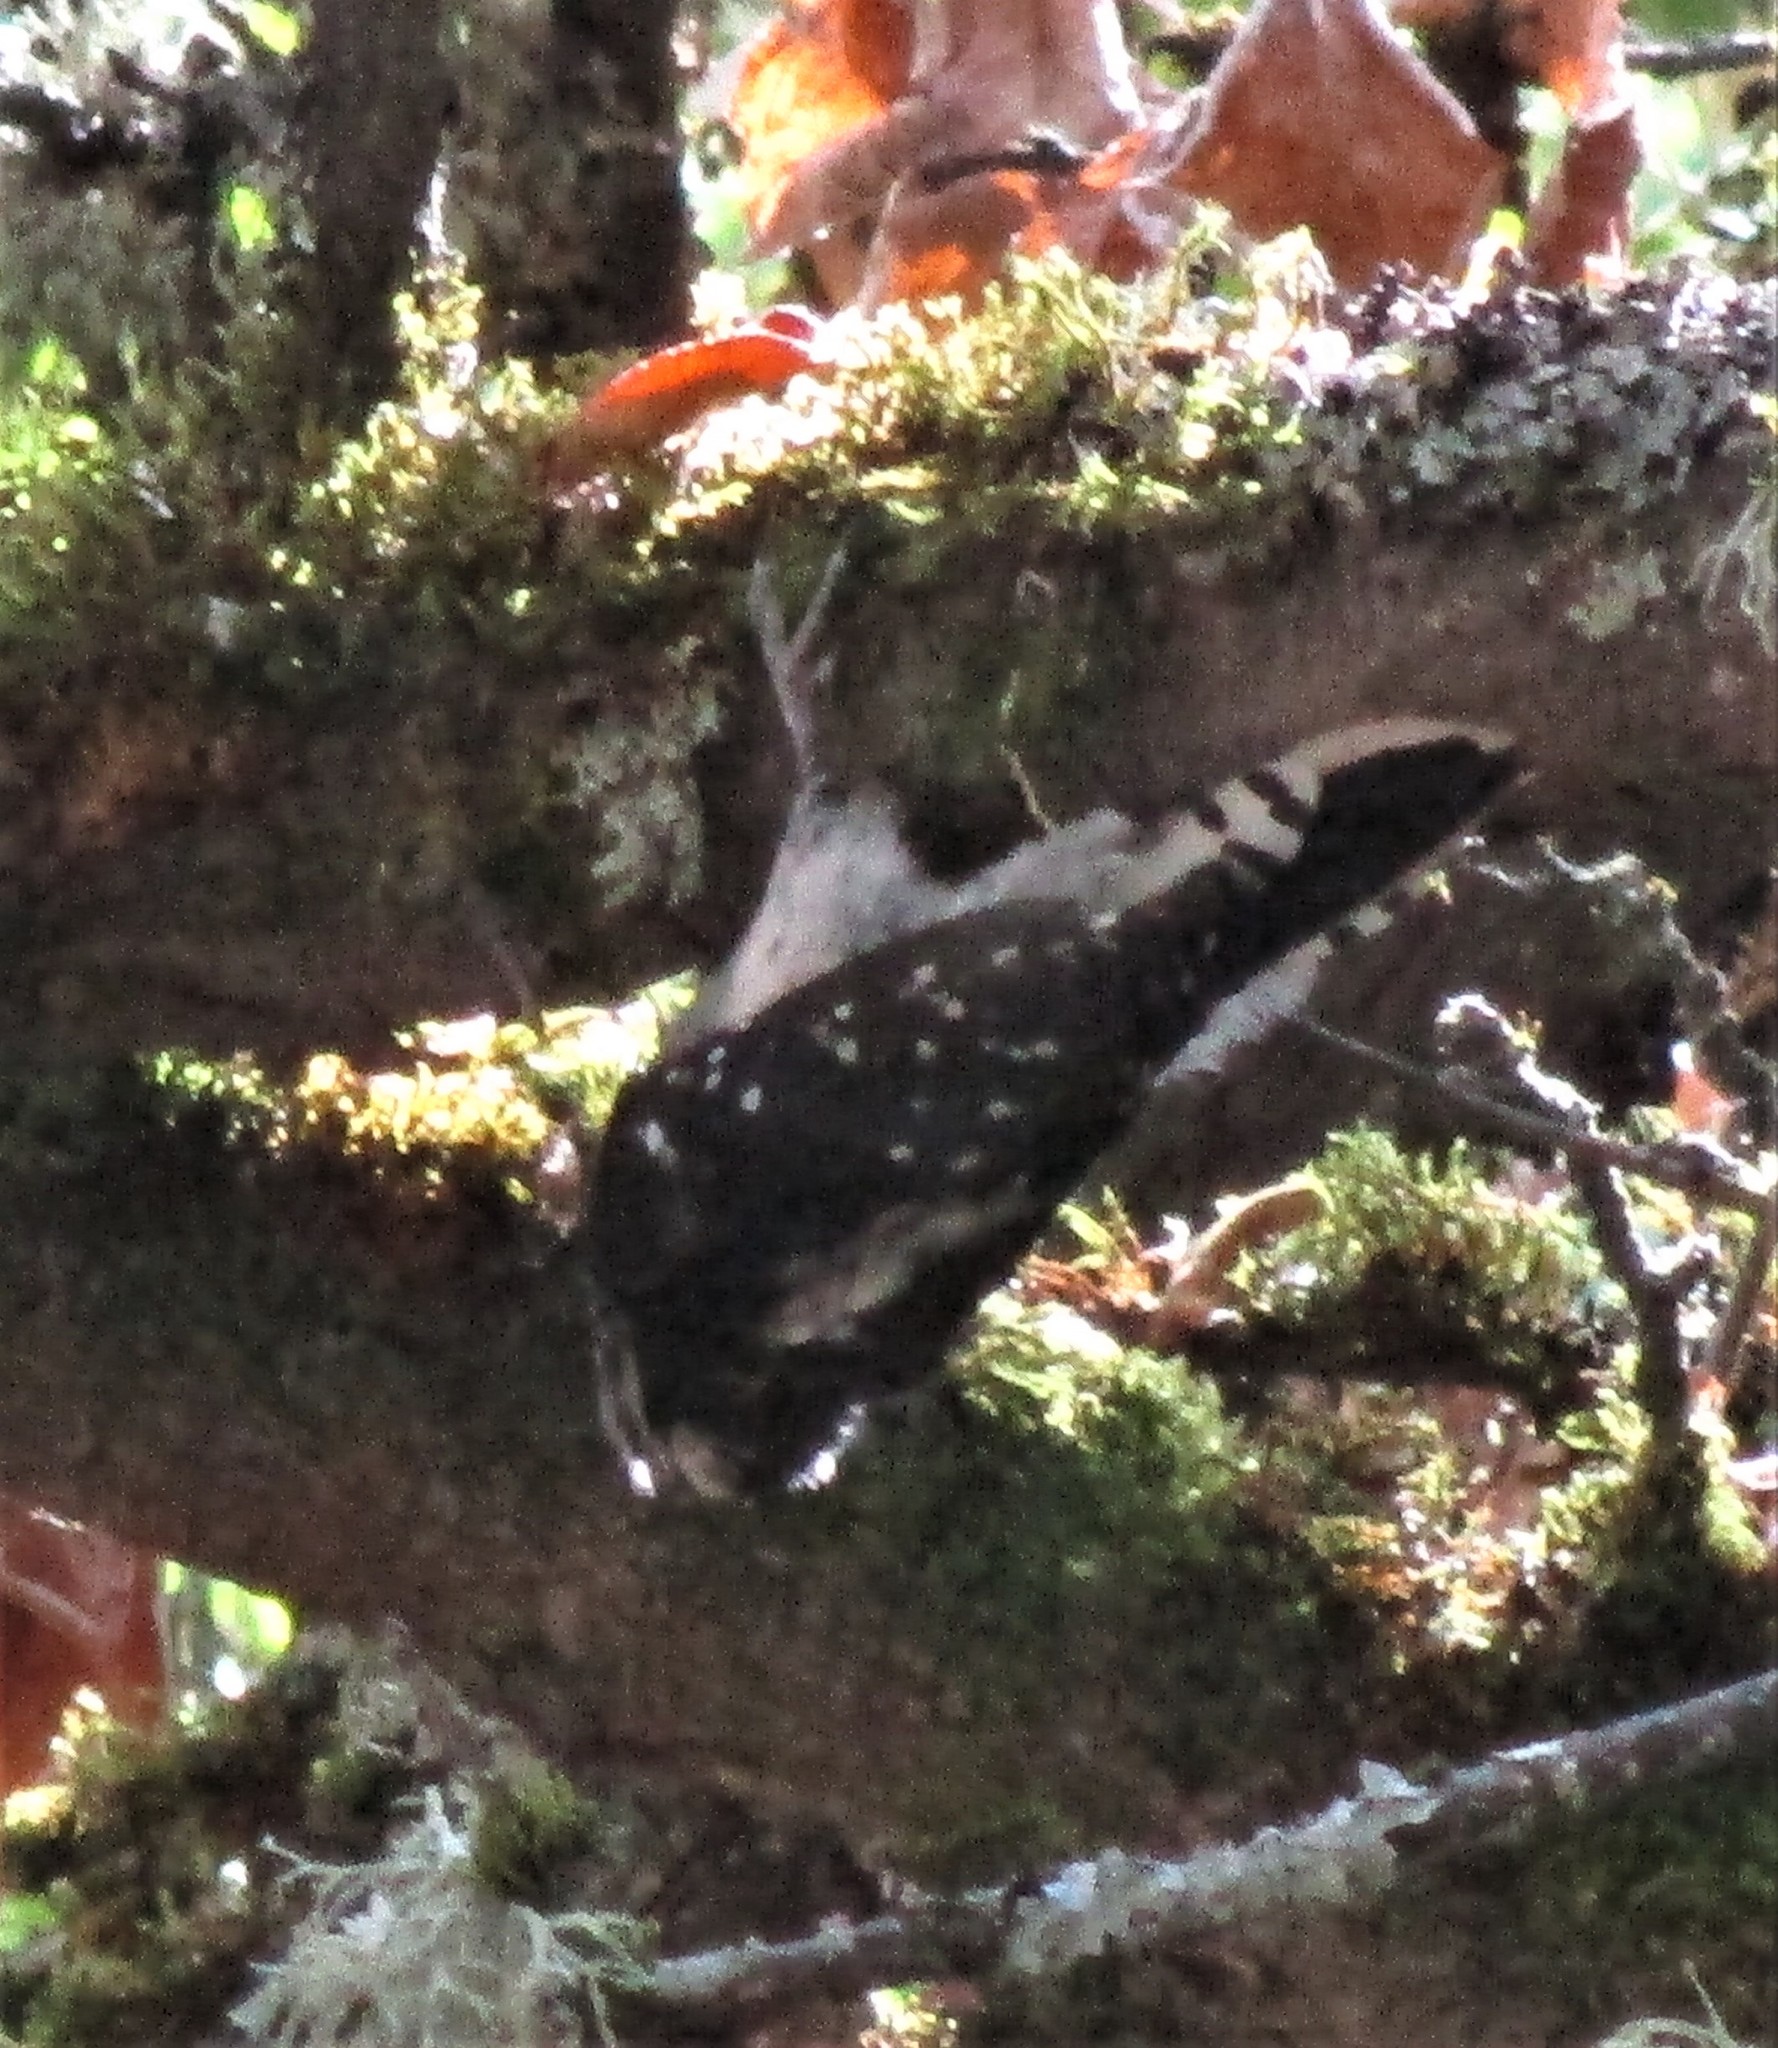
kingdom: Animalia
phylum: Chordata
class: Aves
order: Piciformes
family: Picidae
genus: Dryobates
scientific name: Dryobates pubescens
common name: Downy woodpecker
